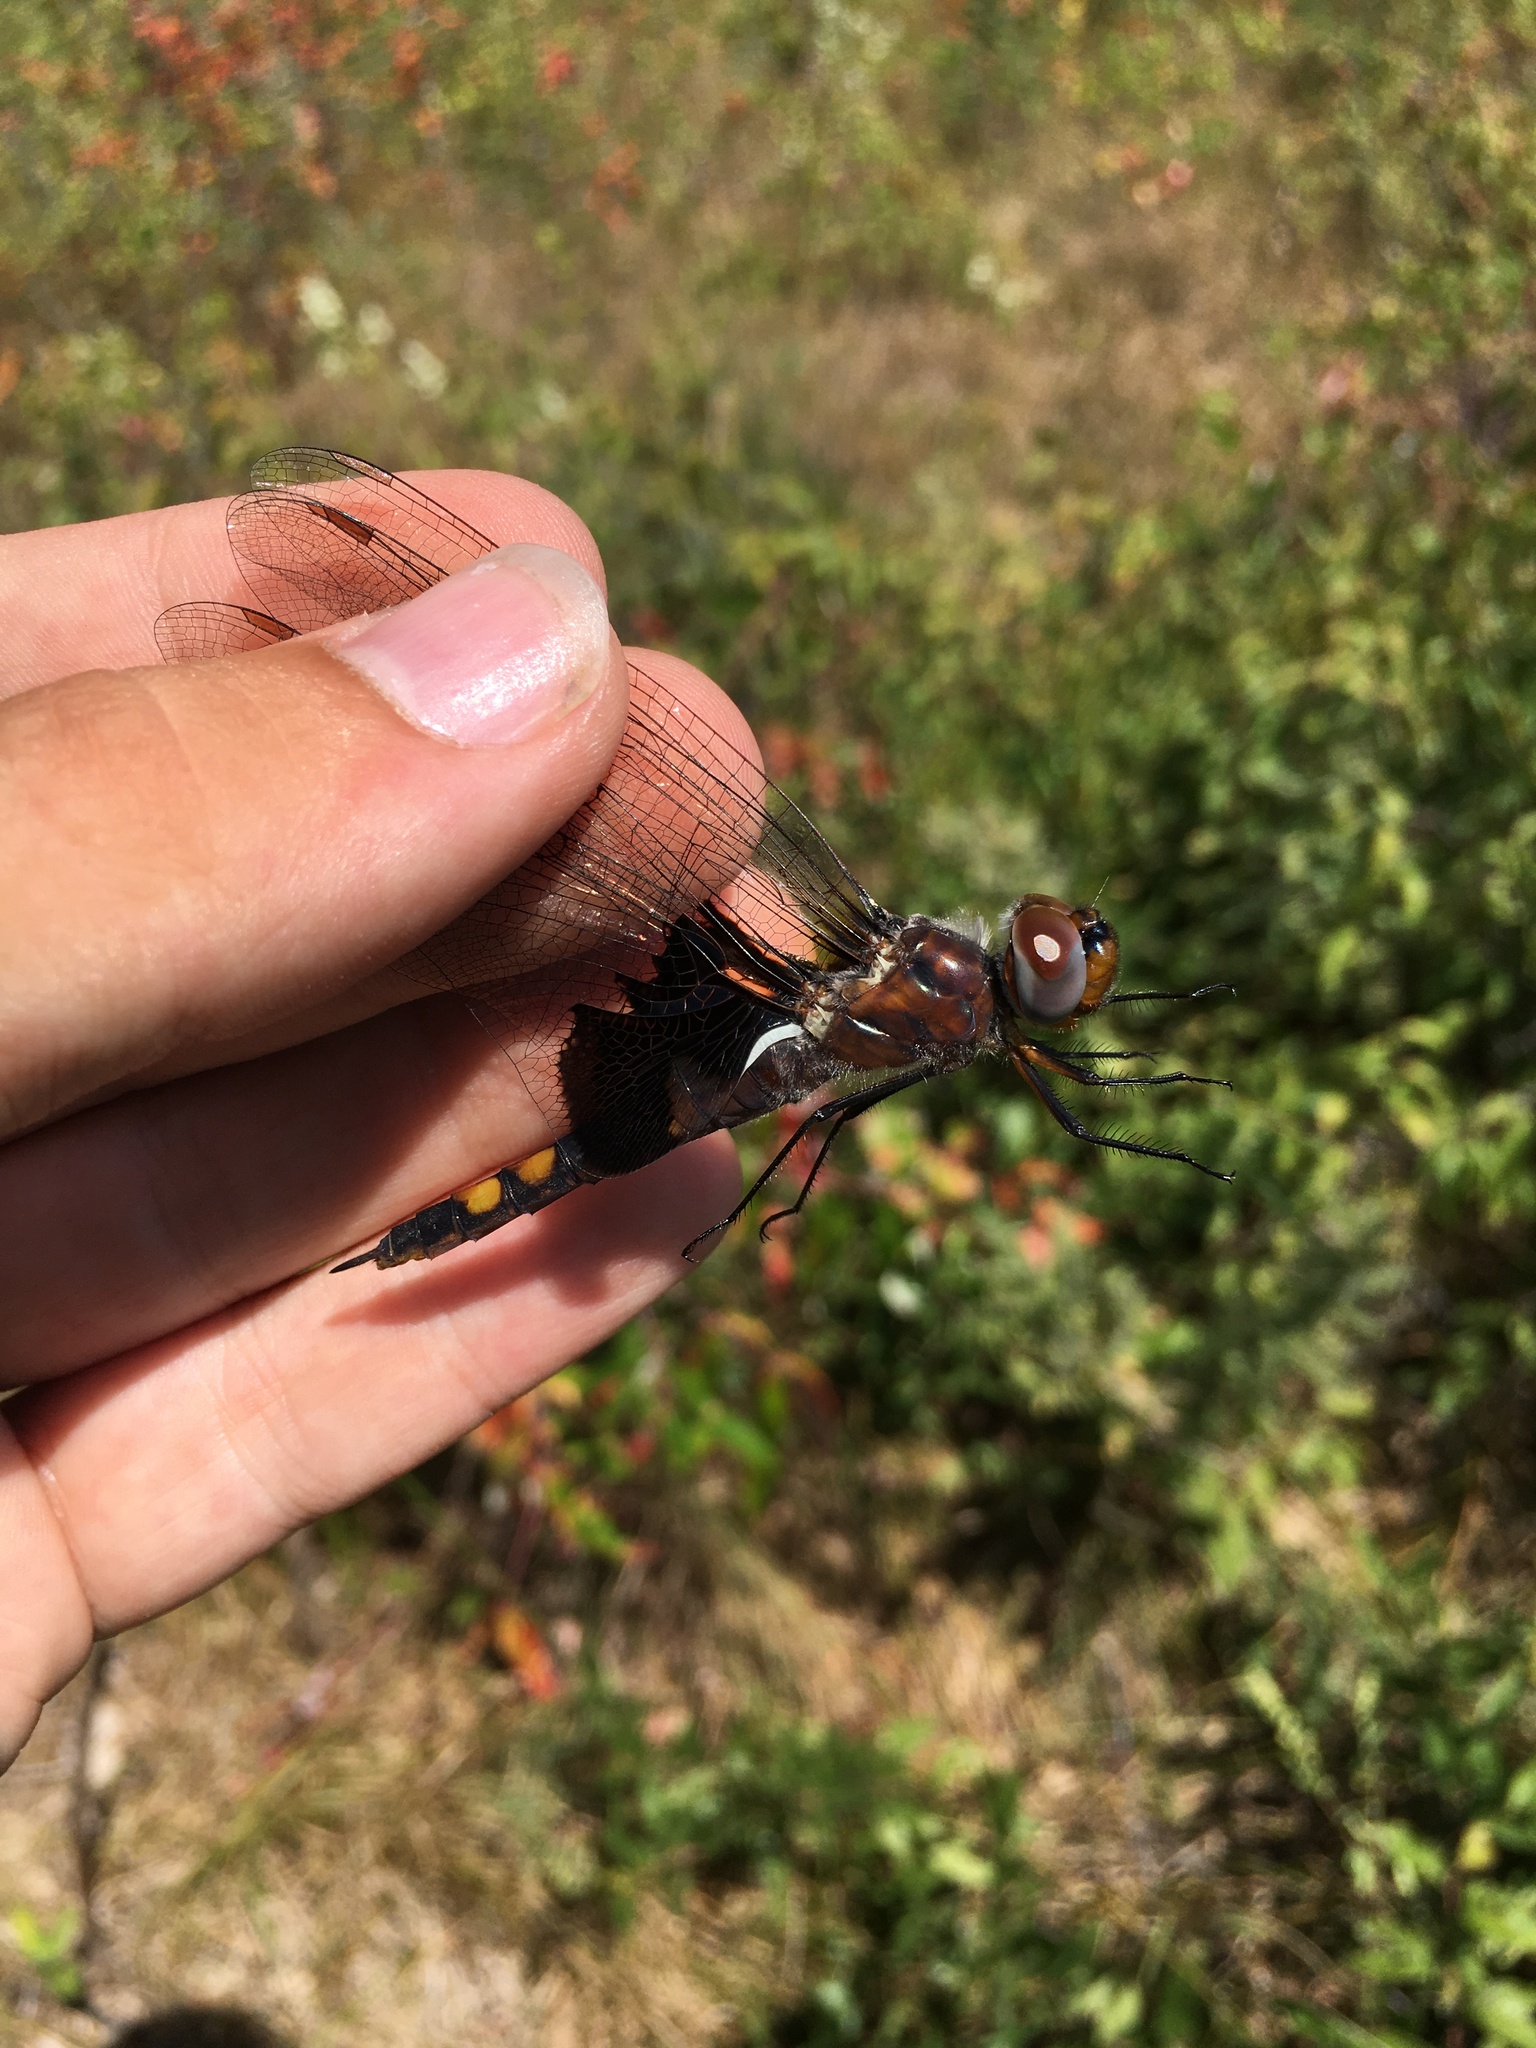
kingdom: Animalia
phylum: Arthropoda
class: Insecta
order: Odonata
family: Libellulidae
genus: Tramea
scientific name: Tramea lacerata
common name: Black saddlebags
